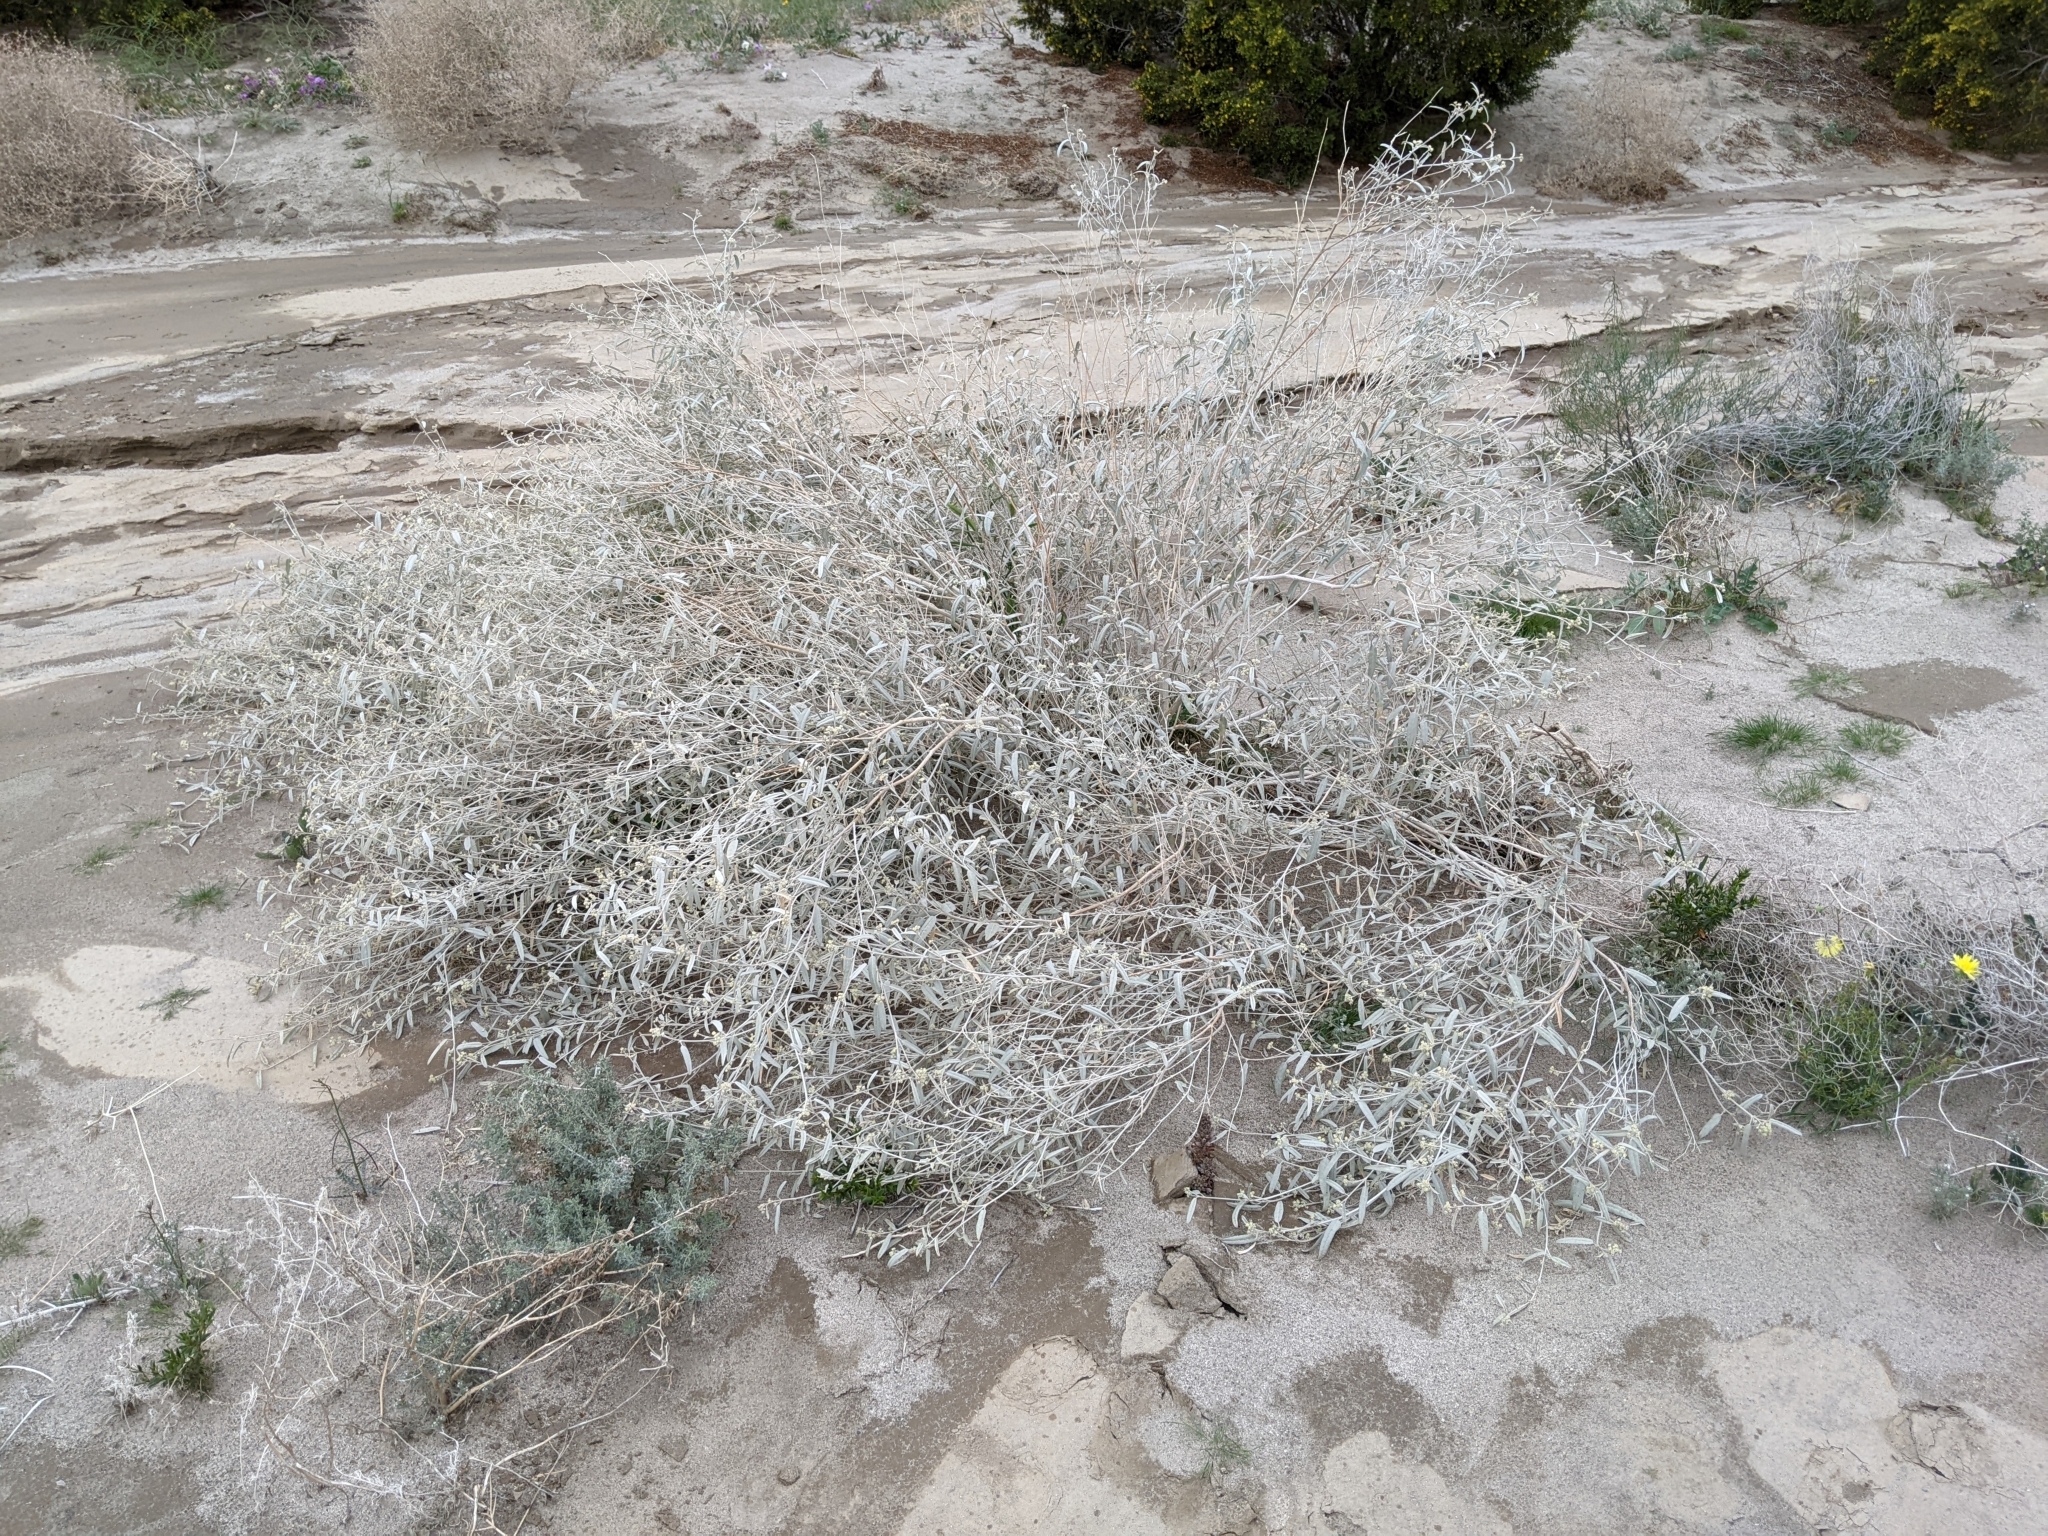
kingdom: Plantae
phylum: Tracheophyta
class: Magnoliopsida
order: Malpighiales
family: Euphorbiaceae
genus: Croton
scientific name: Croton californicus
